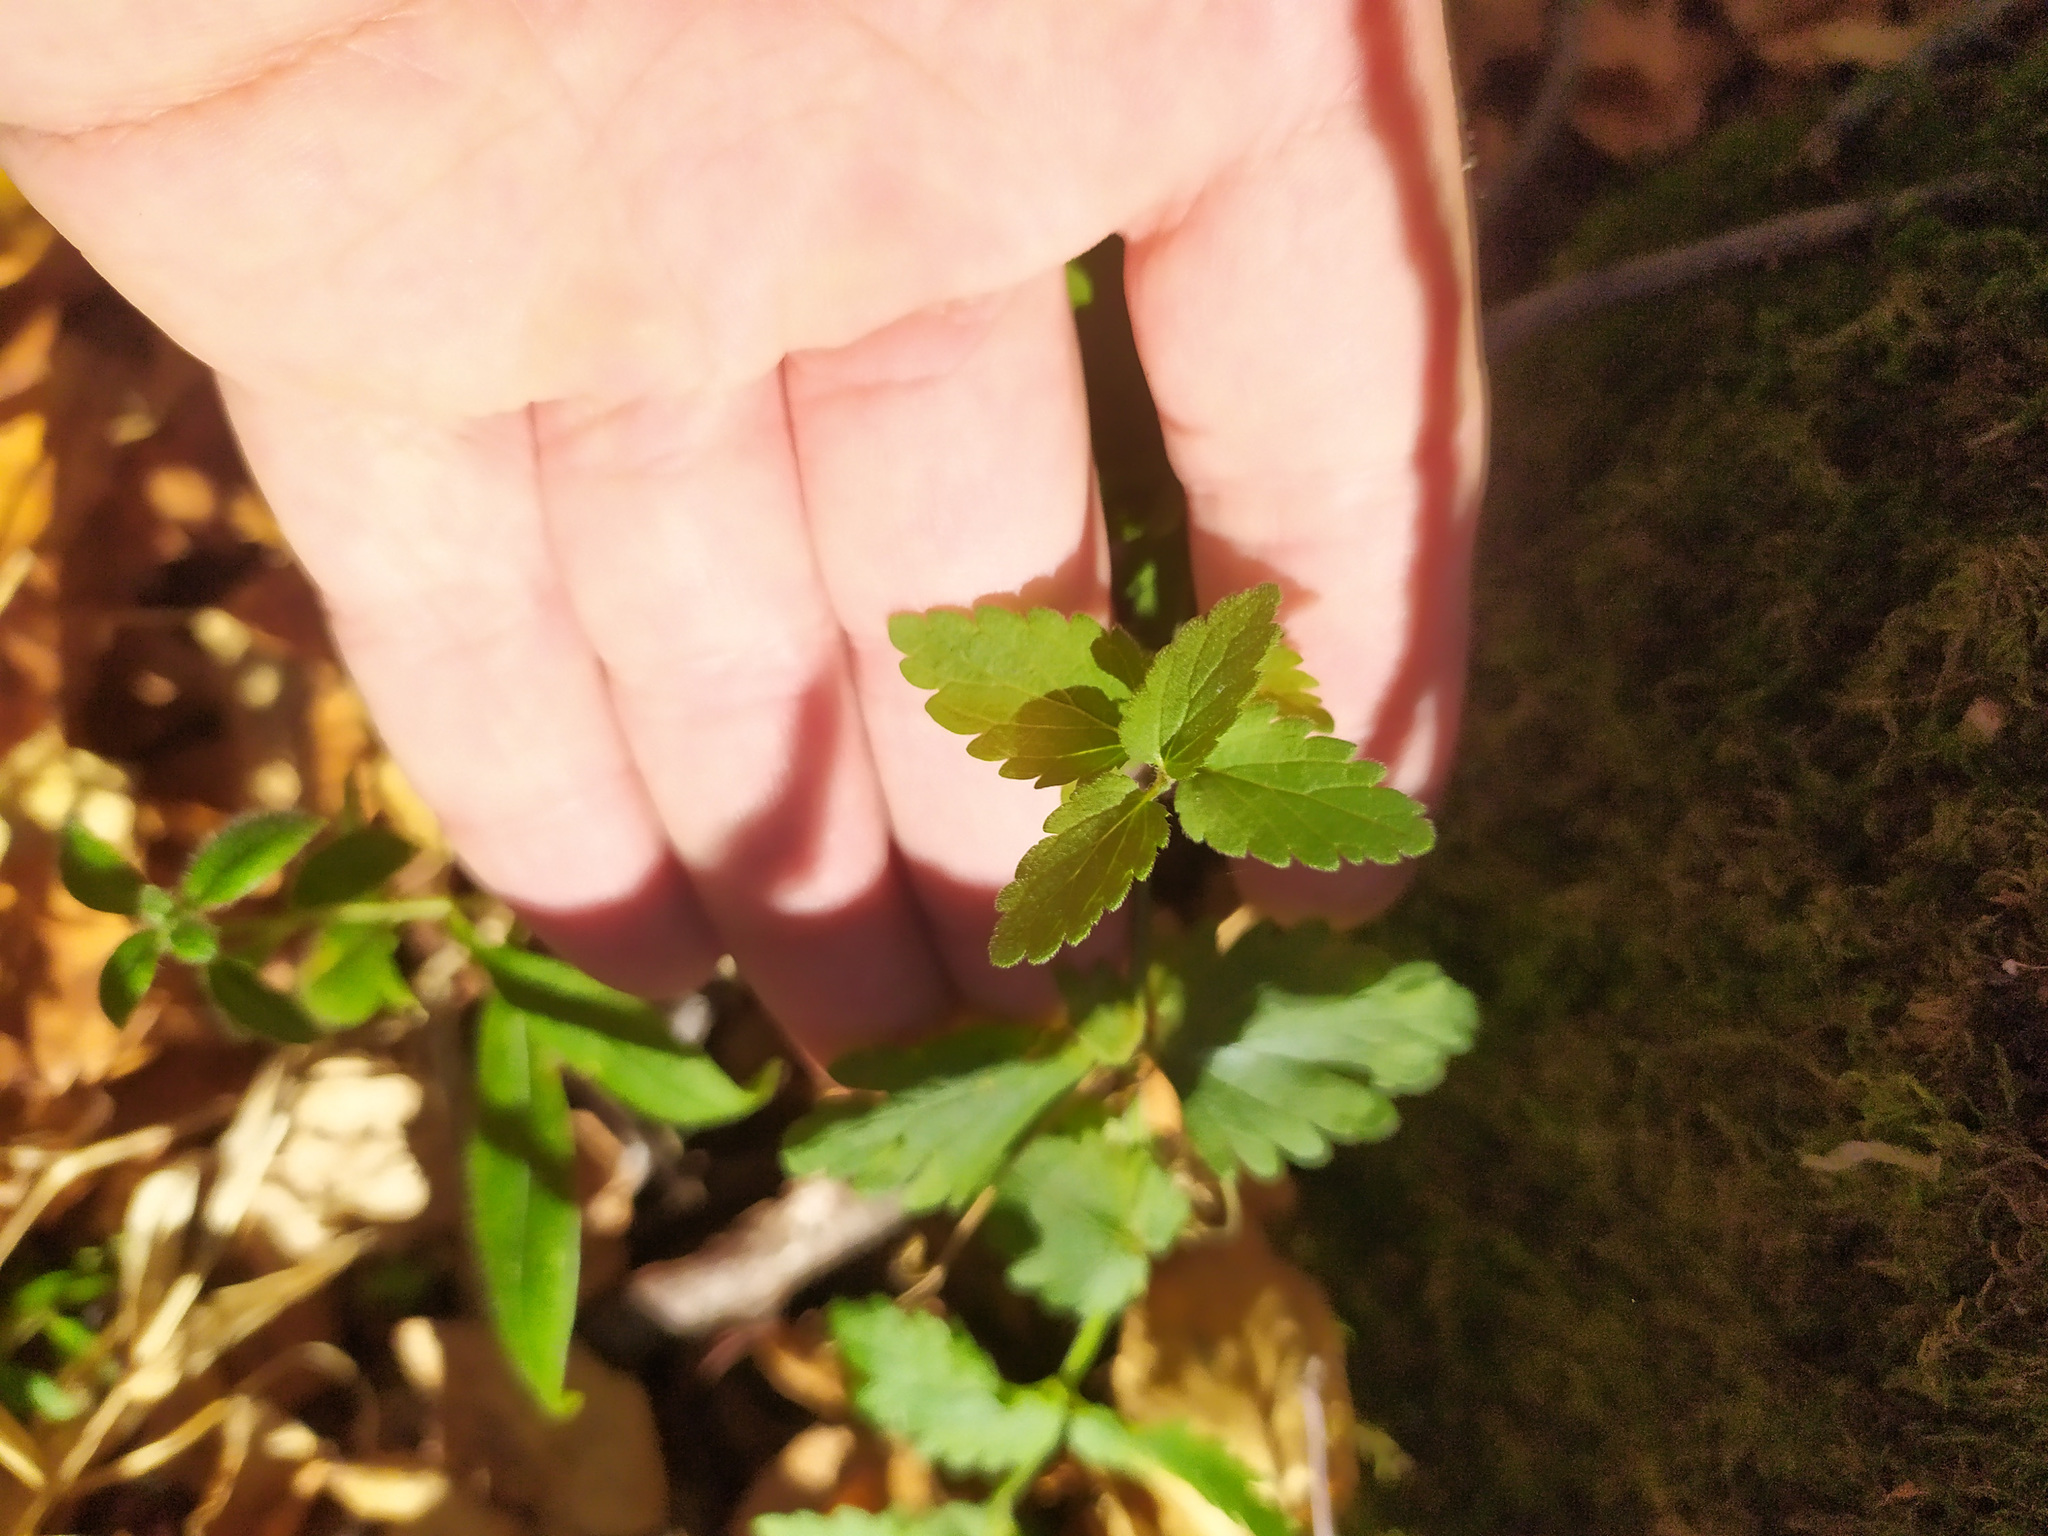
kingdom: Plantae
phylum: Tracheophyta
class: Magnoliopsida
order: Lamiales
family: Plantaginaceae
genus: Veronica
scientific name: Veronica chamaedrys
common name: Germander speedwell
